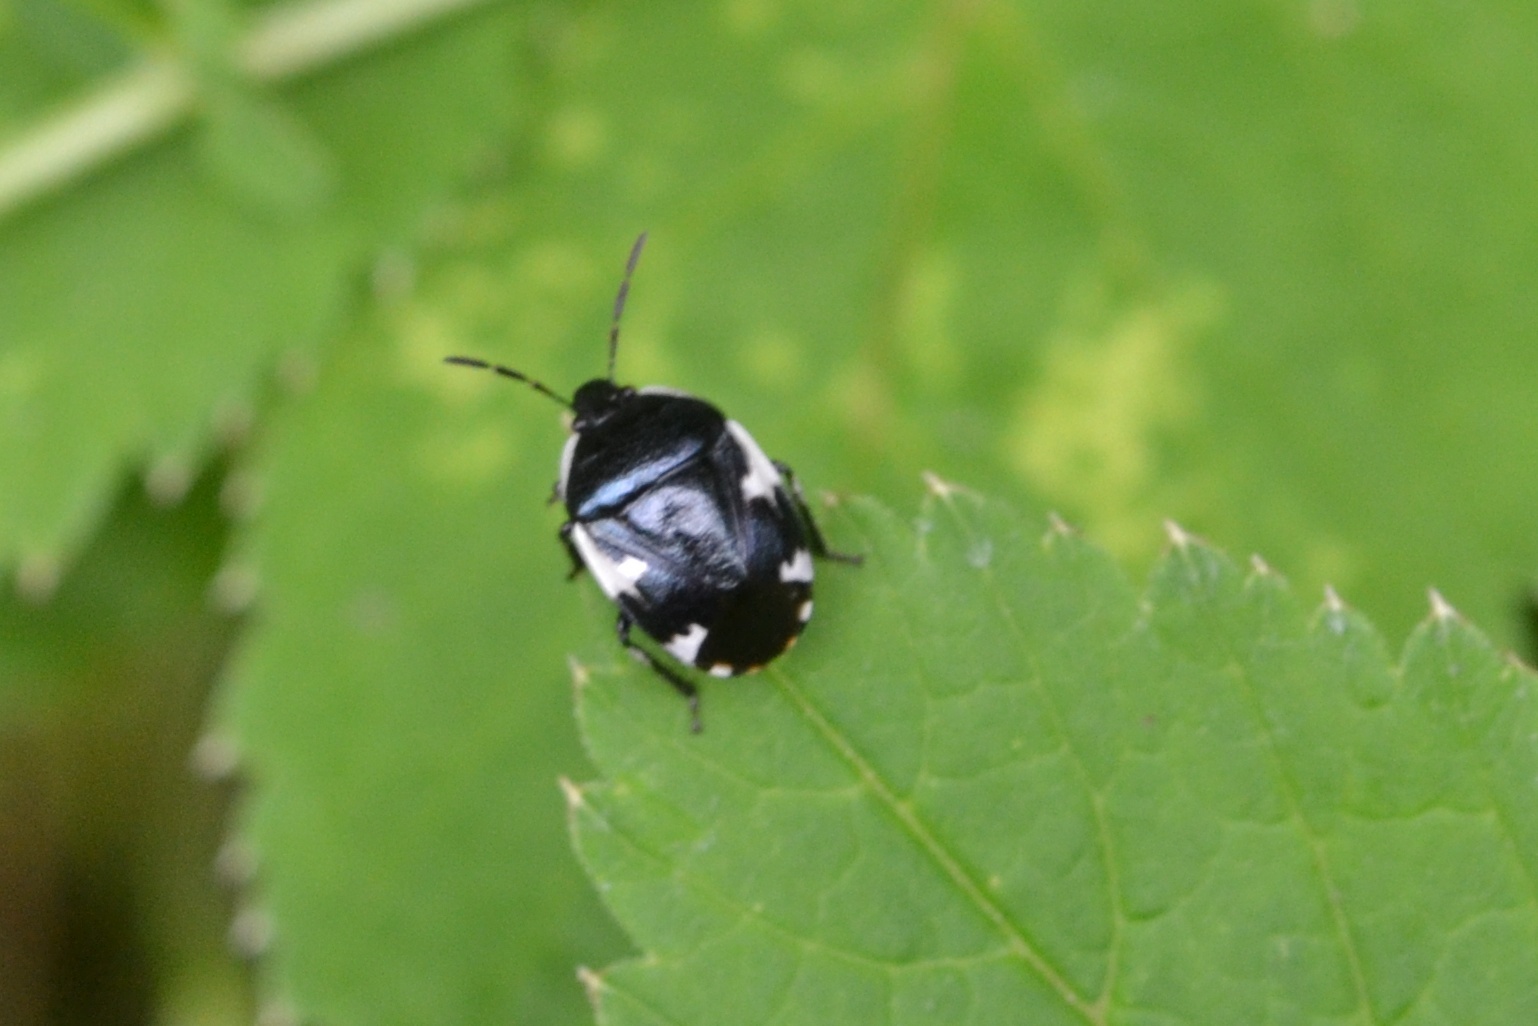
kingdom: Animalia
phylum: Arthropoda
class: Insecta
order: Hemiptera
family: Cydnidae
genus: Tritomegas
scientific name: Tritomegas sexmaculatus
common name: Rambur's pied shieldbug
